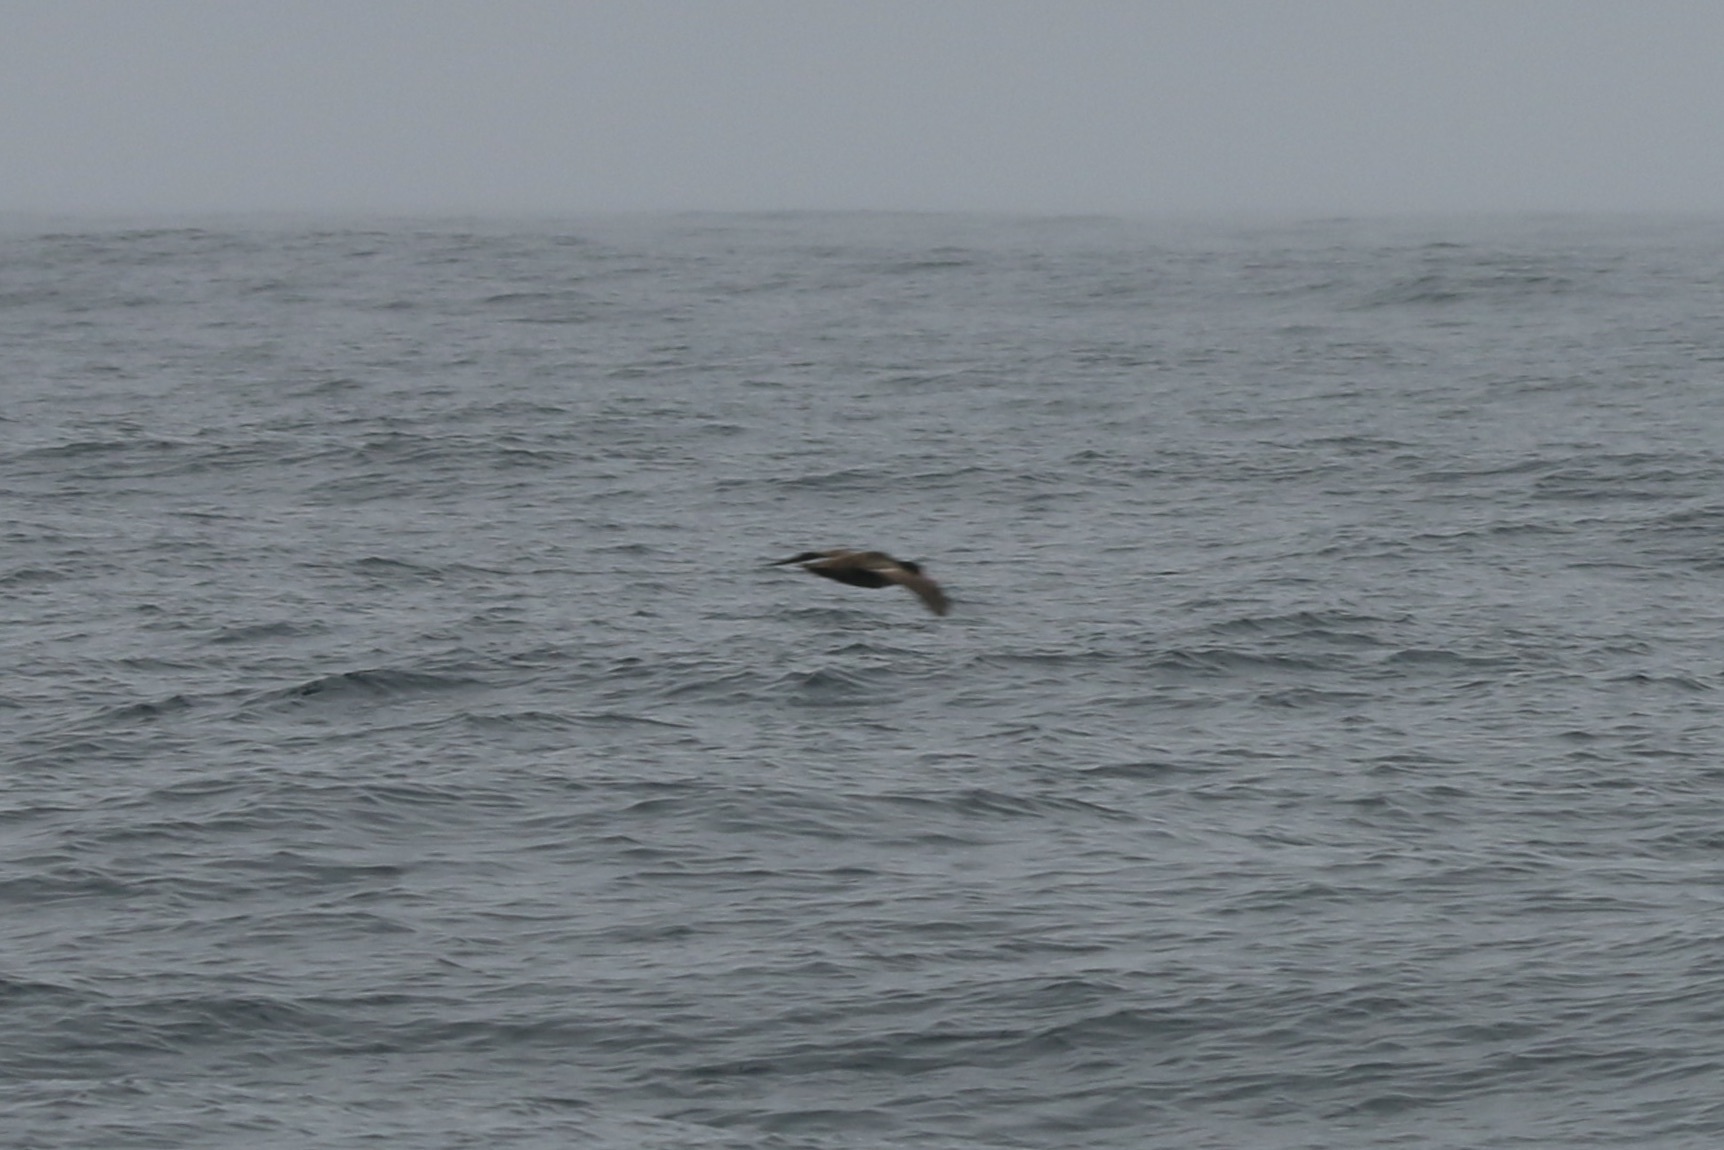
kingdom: Animalia
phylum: Chordata
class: Aves
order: Procellariiformes
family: Diomedeidae
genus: Phoebastria
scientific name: Phoebastria albatrus
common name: Short-tailed albatross
